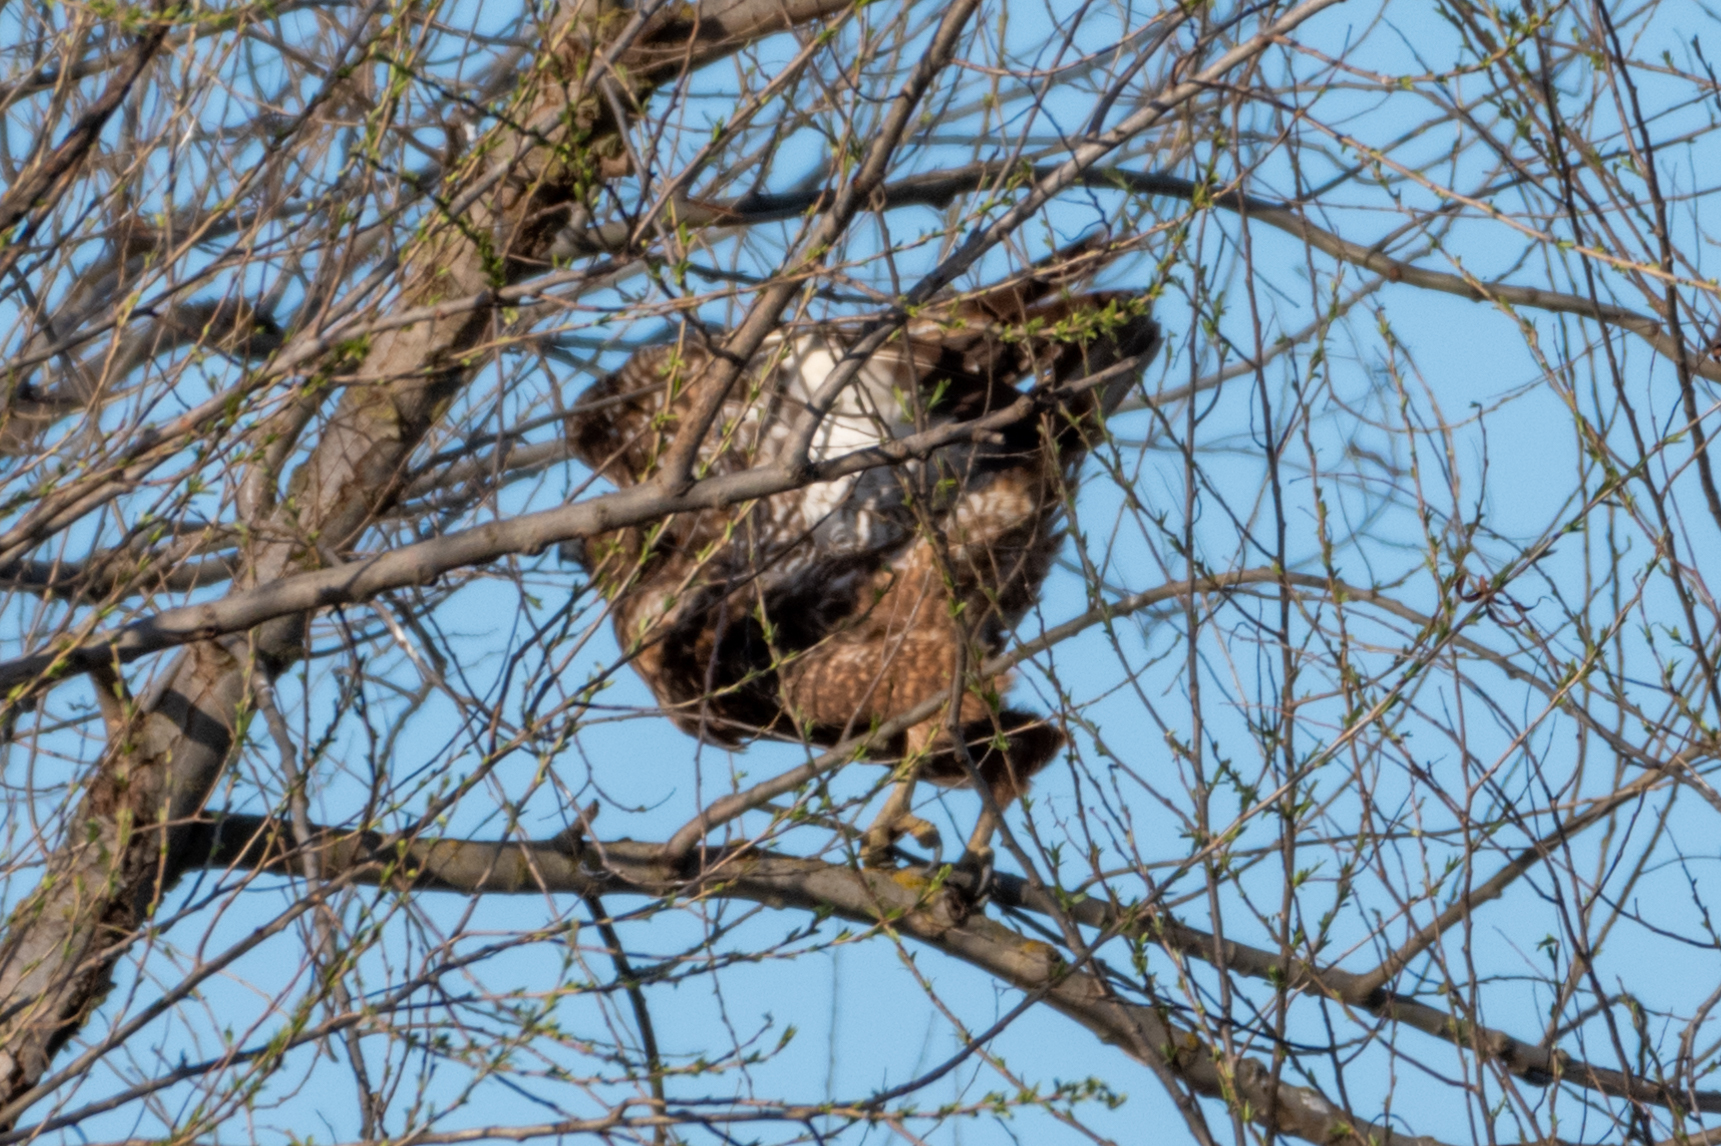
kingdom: Animalia
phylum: Chordata
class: Aves
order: Accipitriformes
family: Accipitridae
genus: Buteo
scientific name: Buteo jamaicensis
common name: Red-tailed hawk
